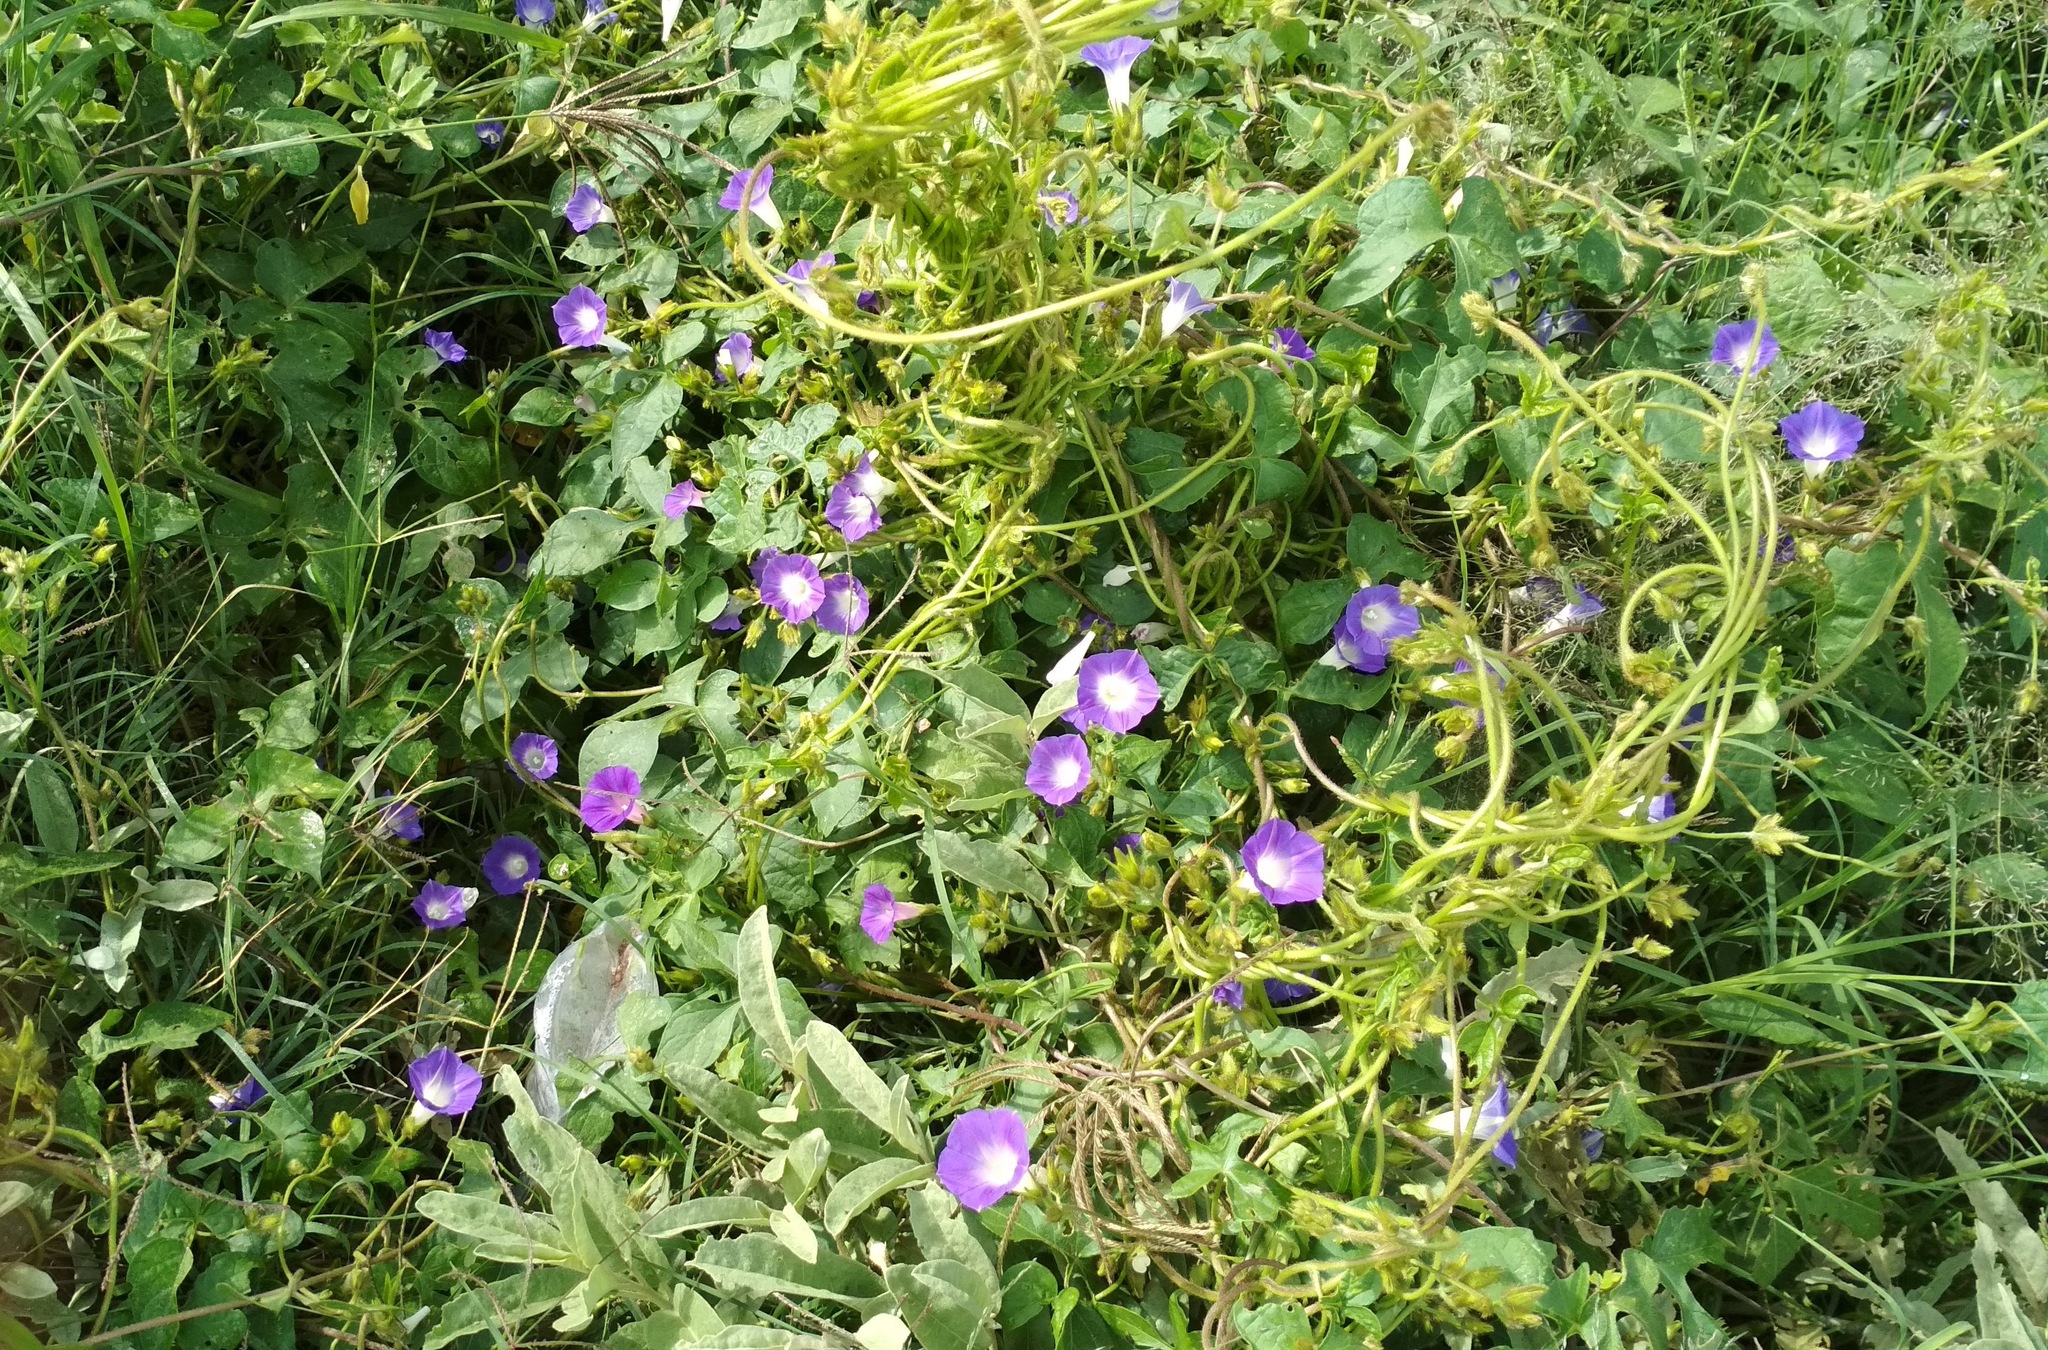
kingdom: Plantae
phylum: Tracheophyta
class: Magnoliopsida
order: Solanales
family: Convolvulaceae
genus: Ipomoea
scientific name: Ipomoea purpurea
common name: Common morning-glory
